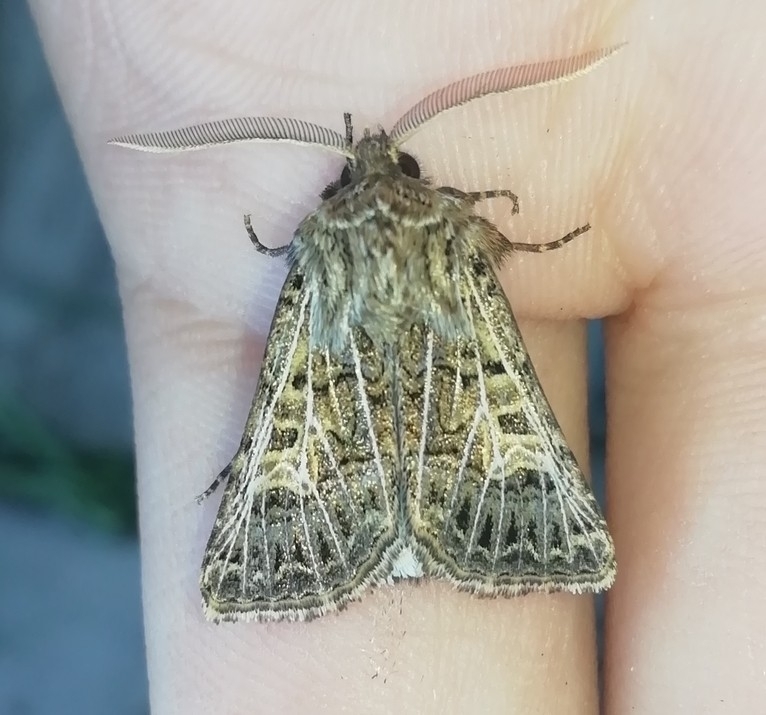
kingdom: Animalia
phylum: Arthropoda
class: Insecta
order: Lepidoptera
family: Noctuidae
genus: Tholera
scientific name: Tholera decimalis
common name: Feathered gothic
